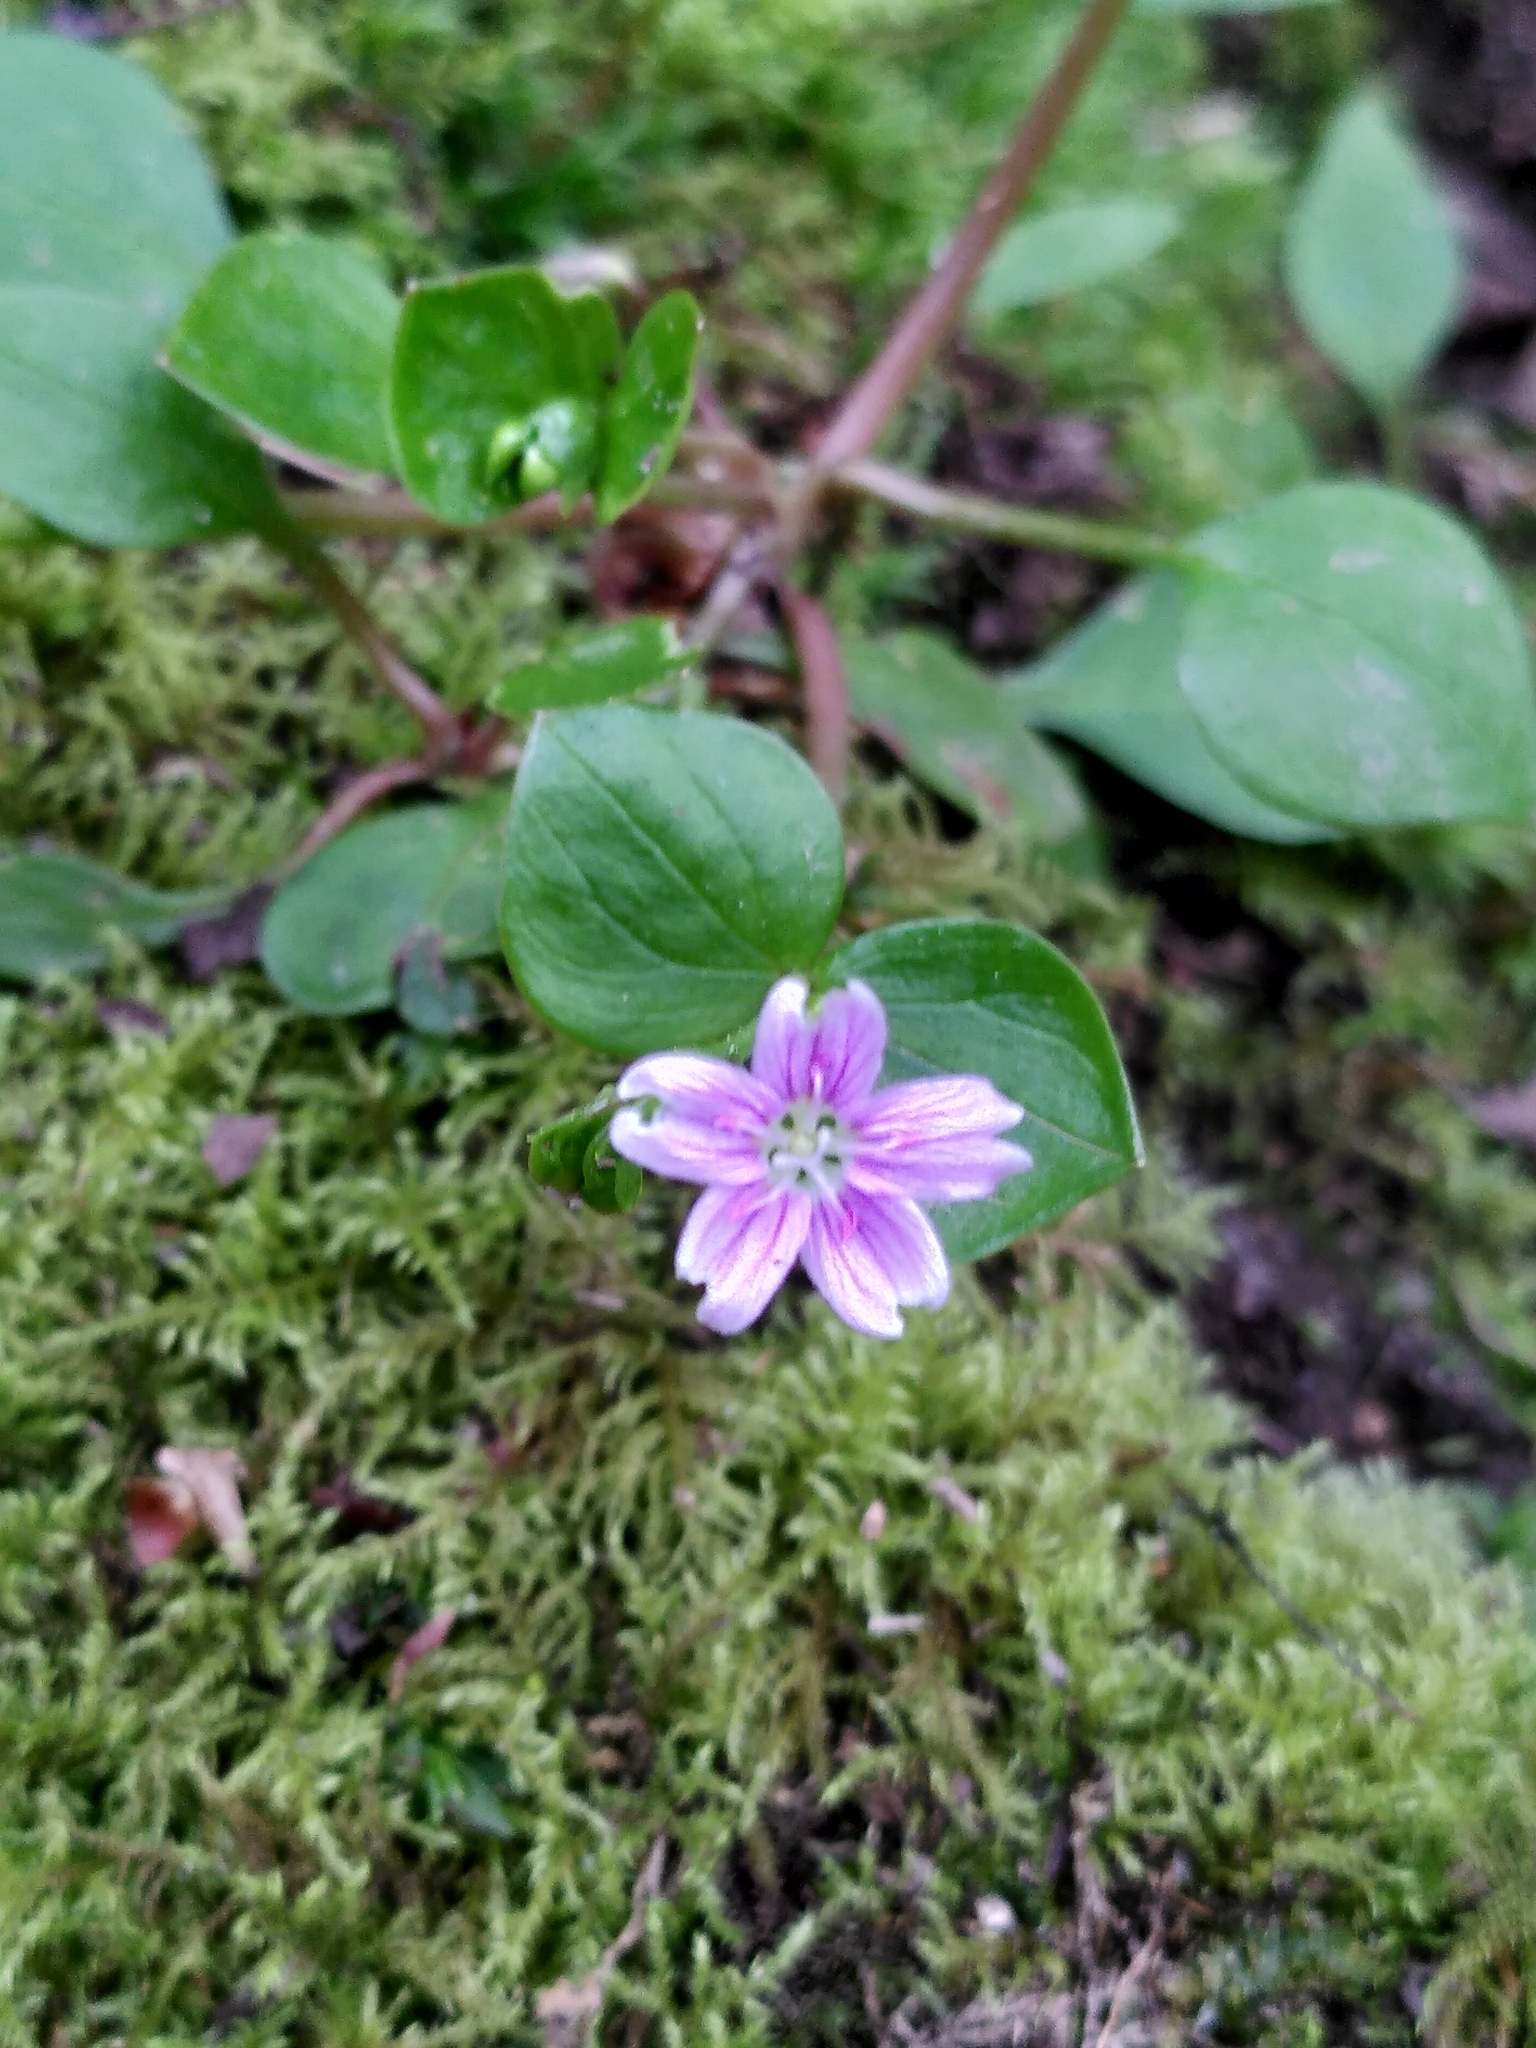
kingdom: Plantae
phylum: Tracheophyta
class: Magnoliopsida
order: Caryophyllales
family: Montiaceae
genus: Claytonia
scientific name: Claytonia sibirica
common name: Pink purslane
